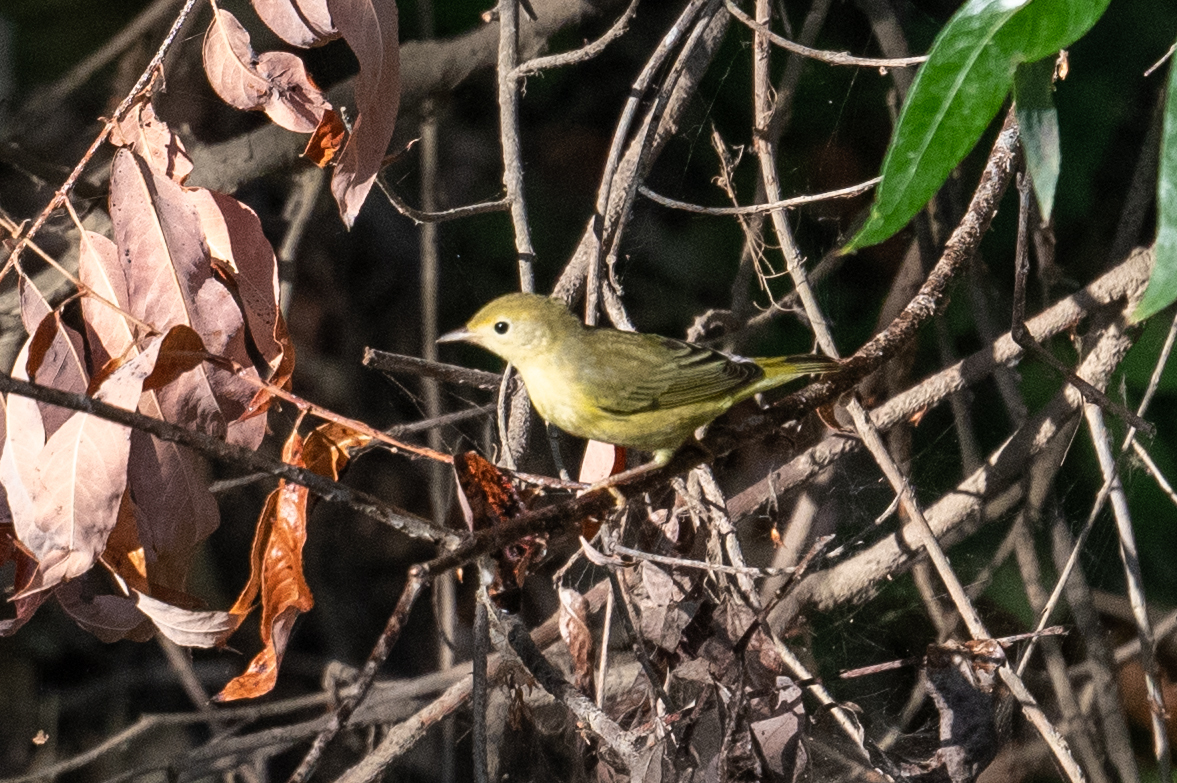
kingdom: Animalia
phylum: Chordata
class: Aves
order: Passeriformes
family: Parulidae
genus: Setophaga
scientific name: Setophaga petechia
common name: Yellow warbler
